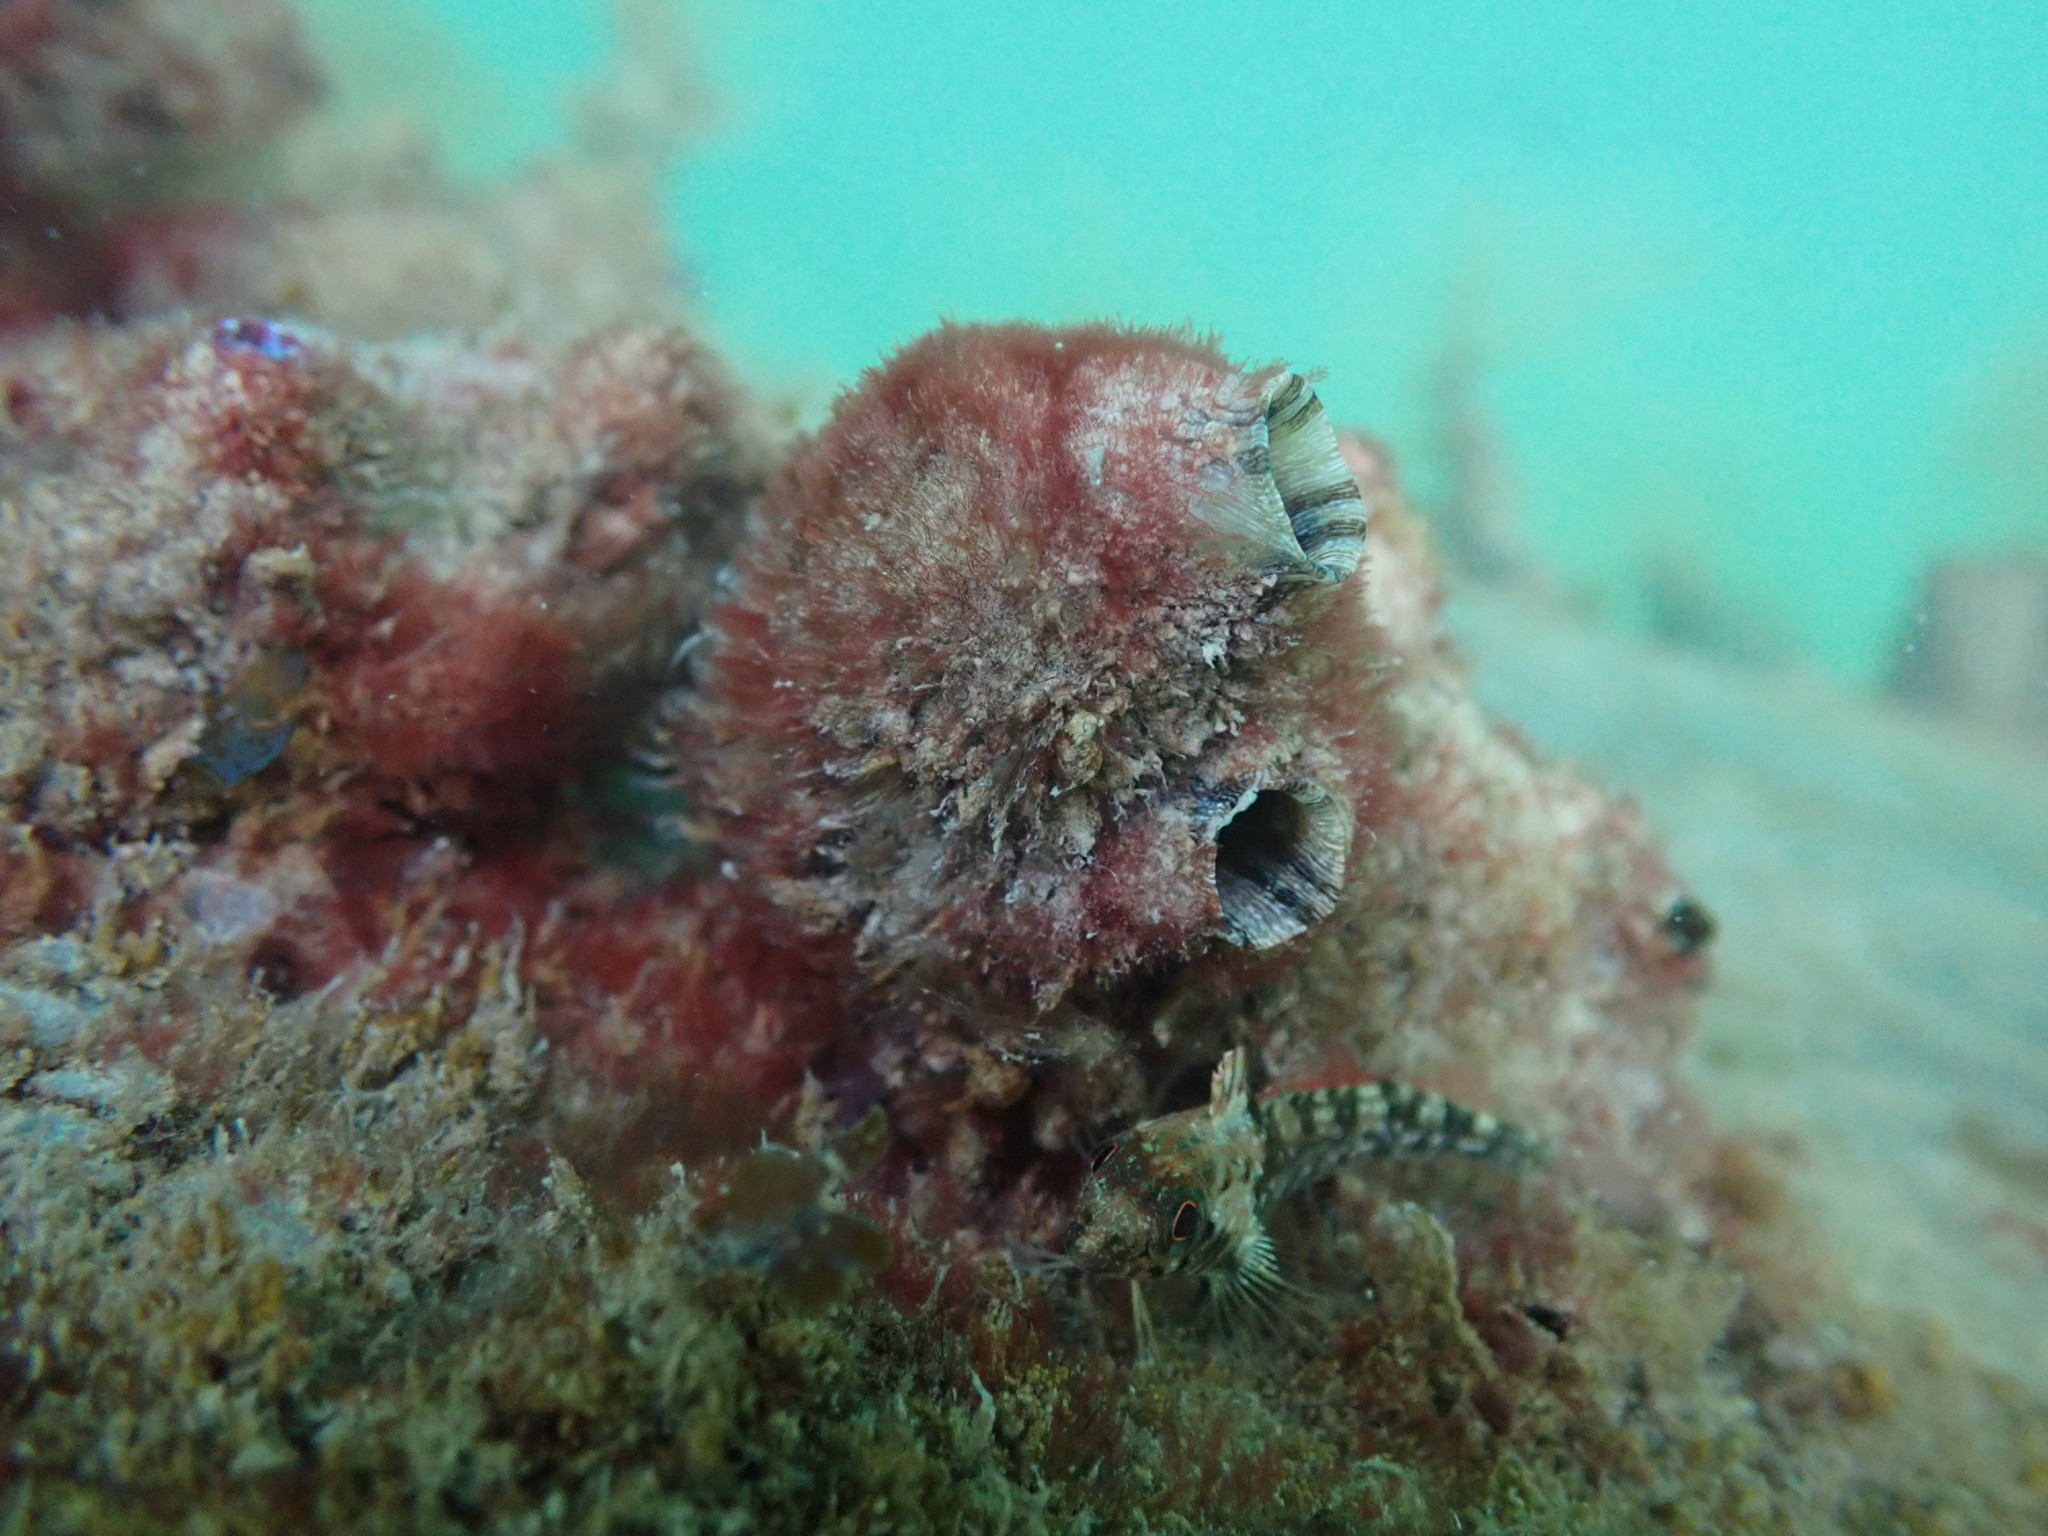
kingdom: Animalia
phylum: Chordata
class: Ascidiacea
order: Stolidobranchia
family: Styelidae
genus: Styela
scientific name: Styela plicata
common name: Pleated tunicate
